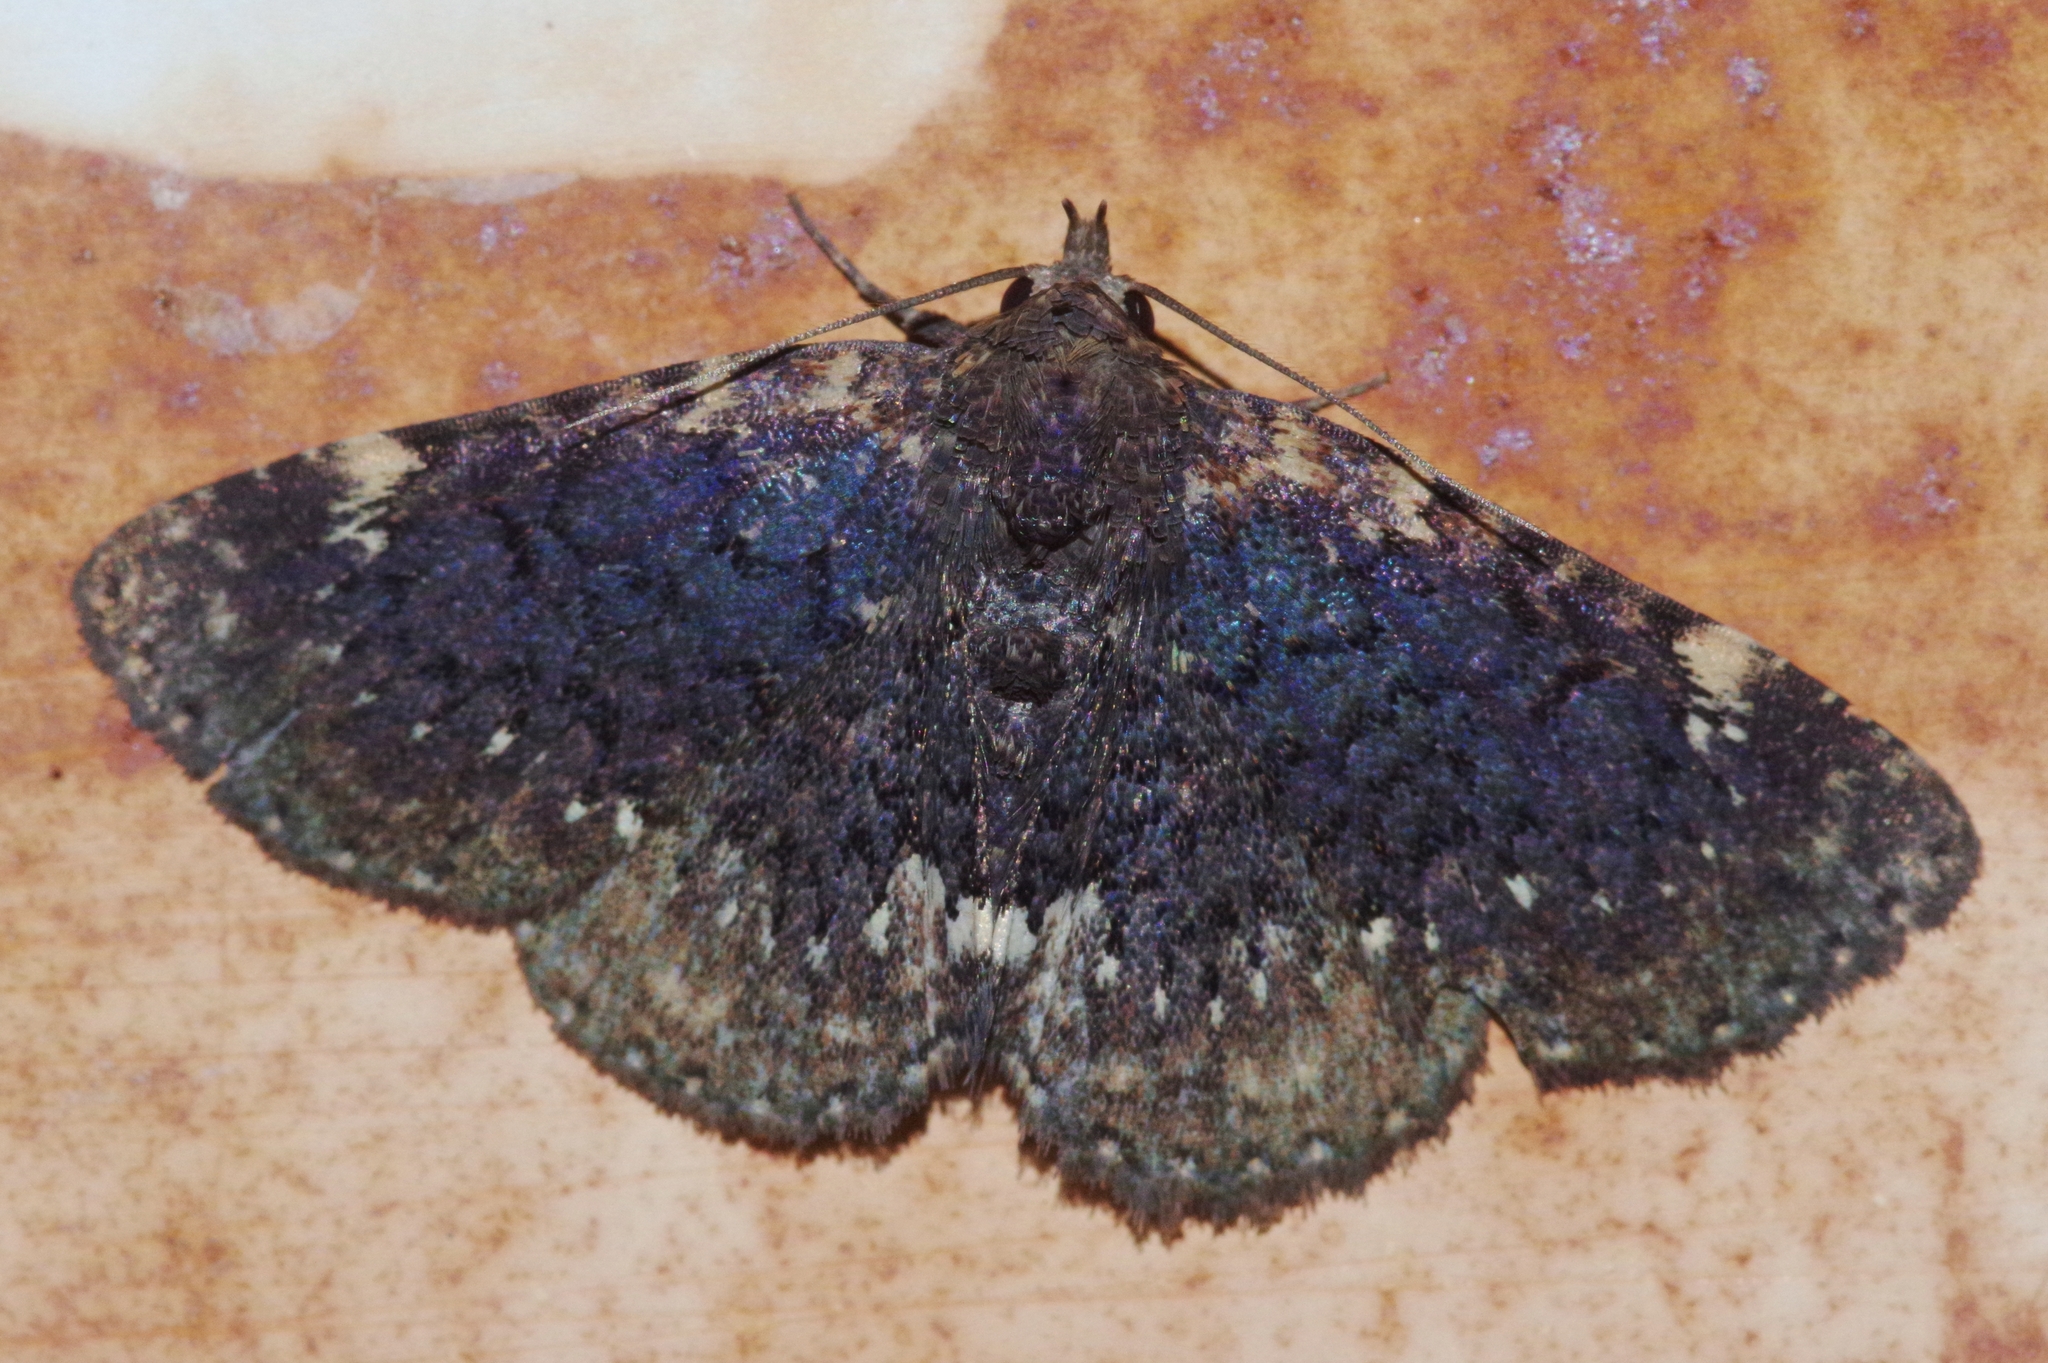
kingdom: Animalia
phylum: Arthropoda
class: Insecta
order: Lepidoptera
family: Erebidae
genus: Diomea
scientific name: Diomea cremata
